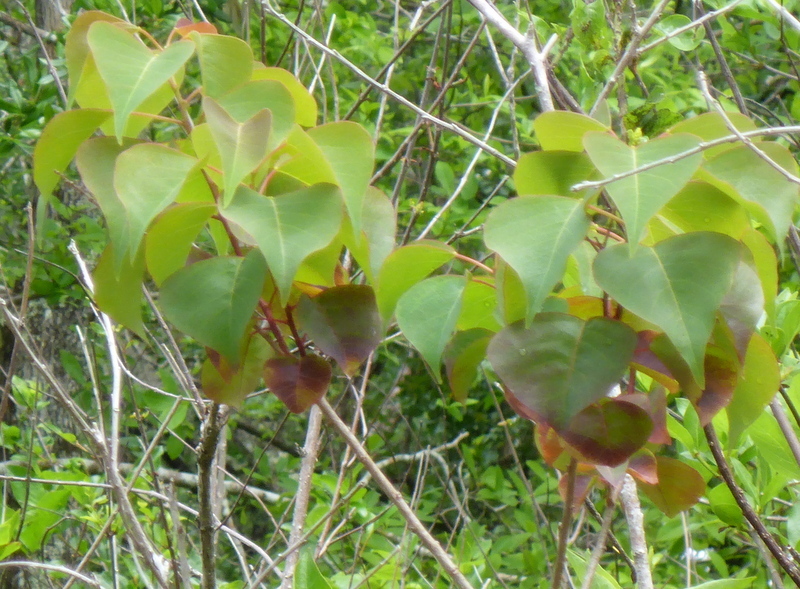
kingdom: Plantae
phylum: Tracheophyta
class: Magnoliopsida
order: Malpighiales
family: Euphorbiaceae
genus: Triadica
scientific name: Triadica sebifera
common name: Chinese tallow
